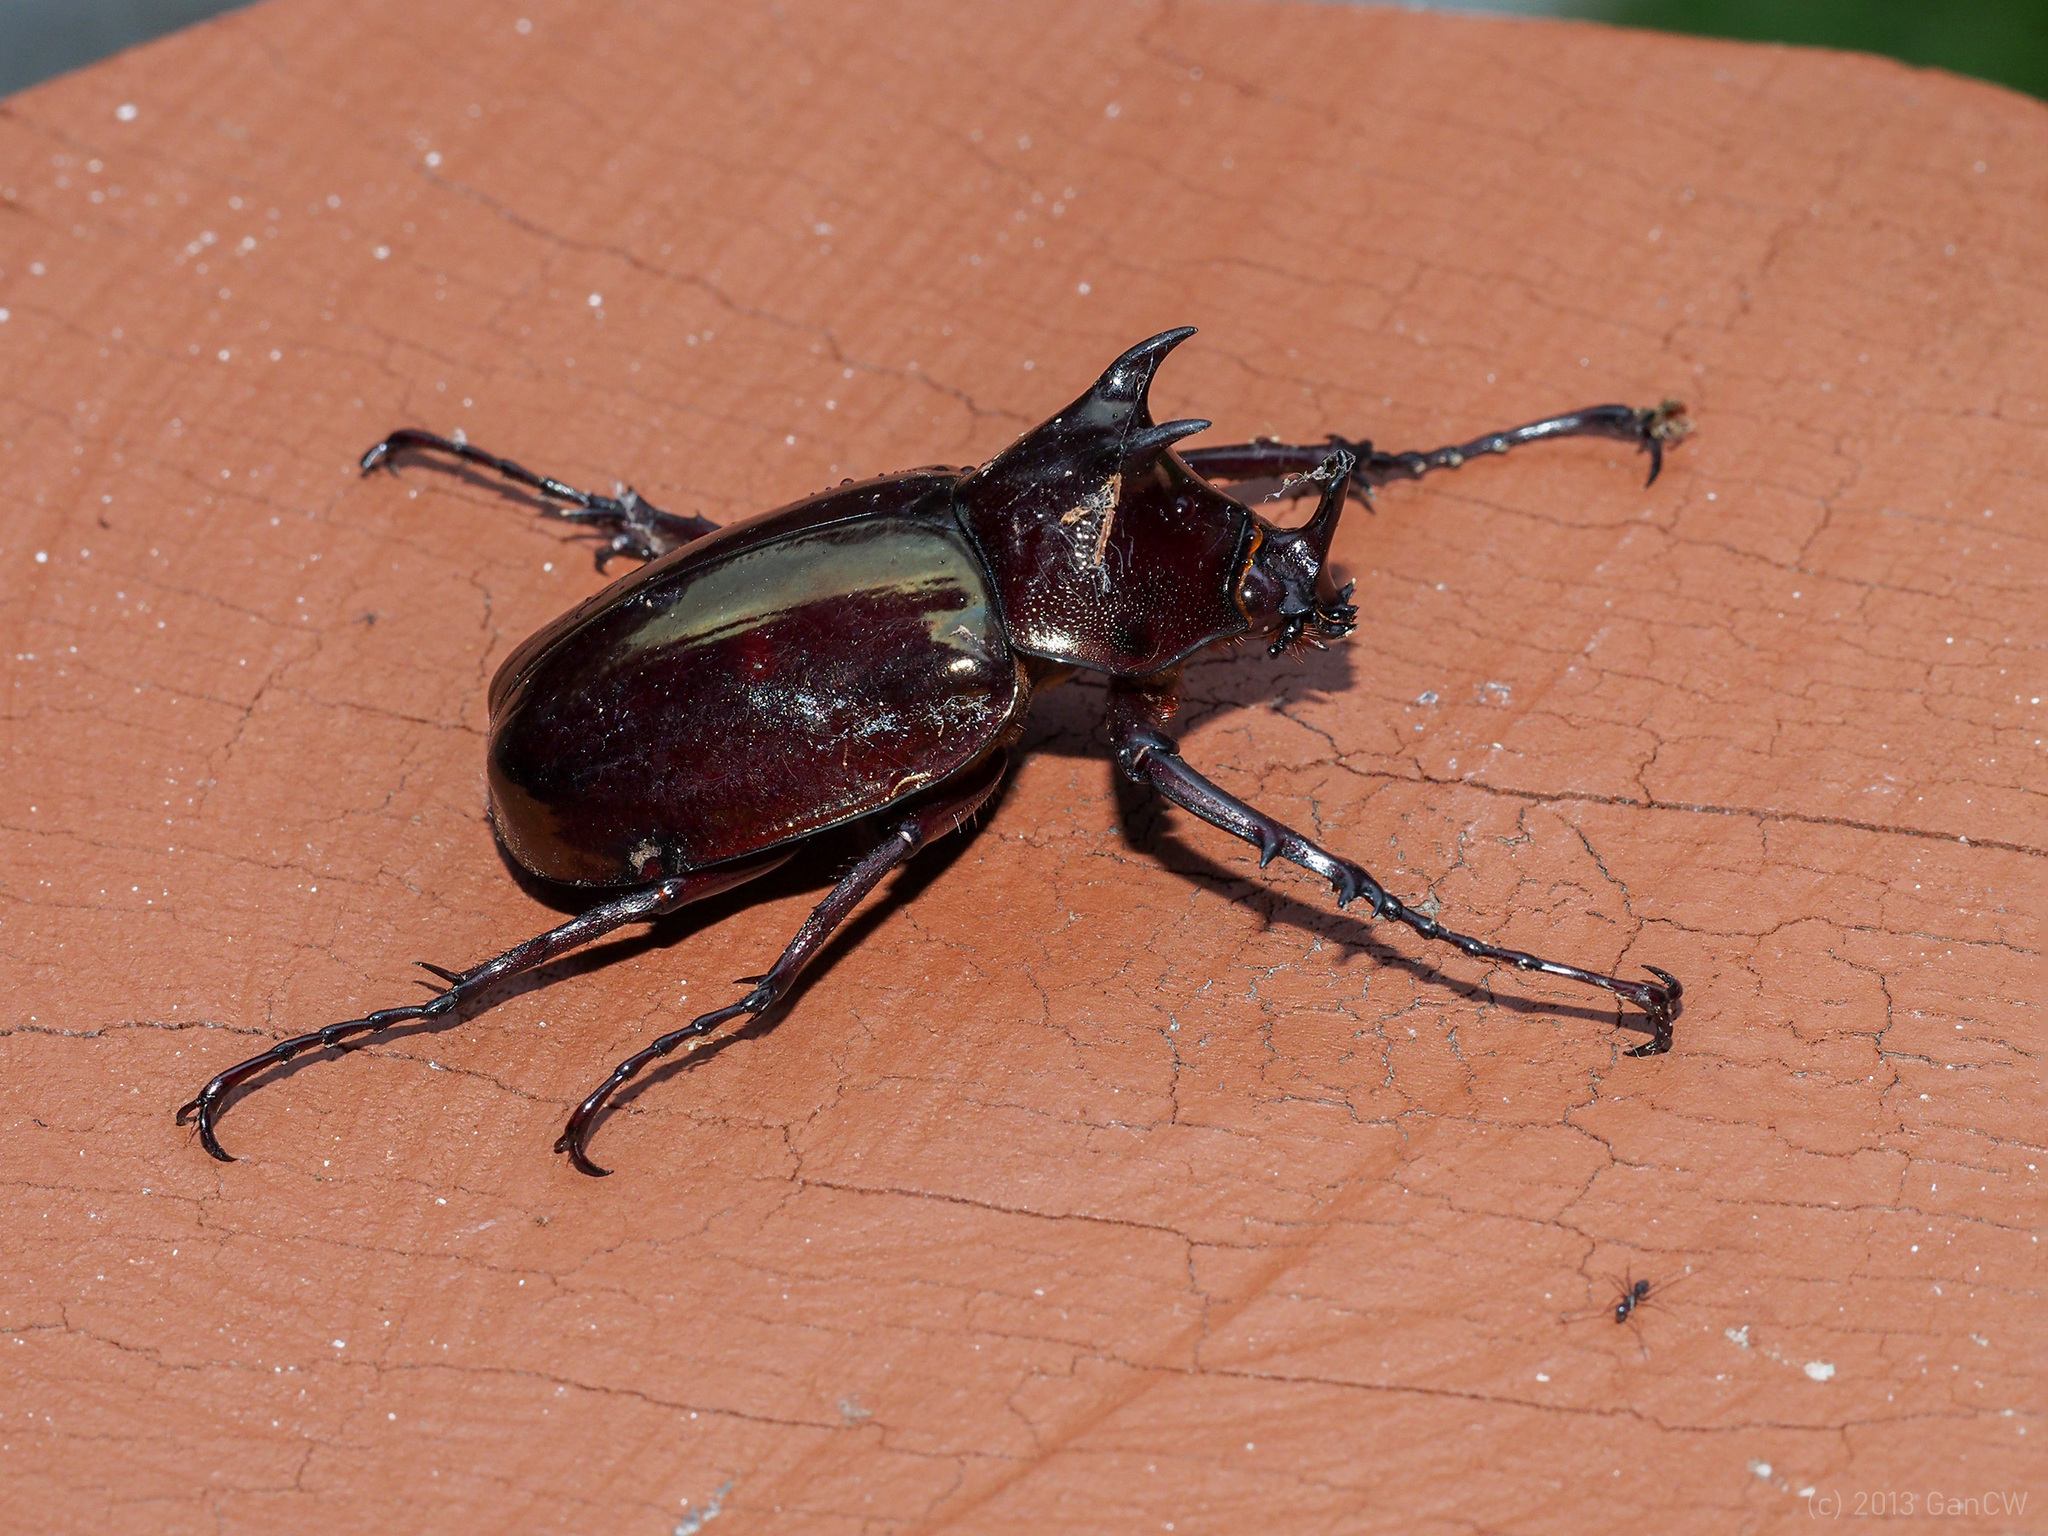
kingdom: Animalia
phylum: Arthropoda
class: Insecta
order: Coleoptera
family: Scarabaeidae
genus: Chalcosoma
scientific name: Chalcosoma moellenkampi
